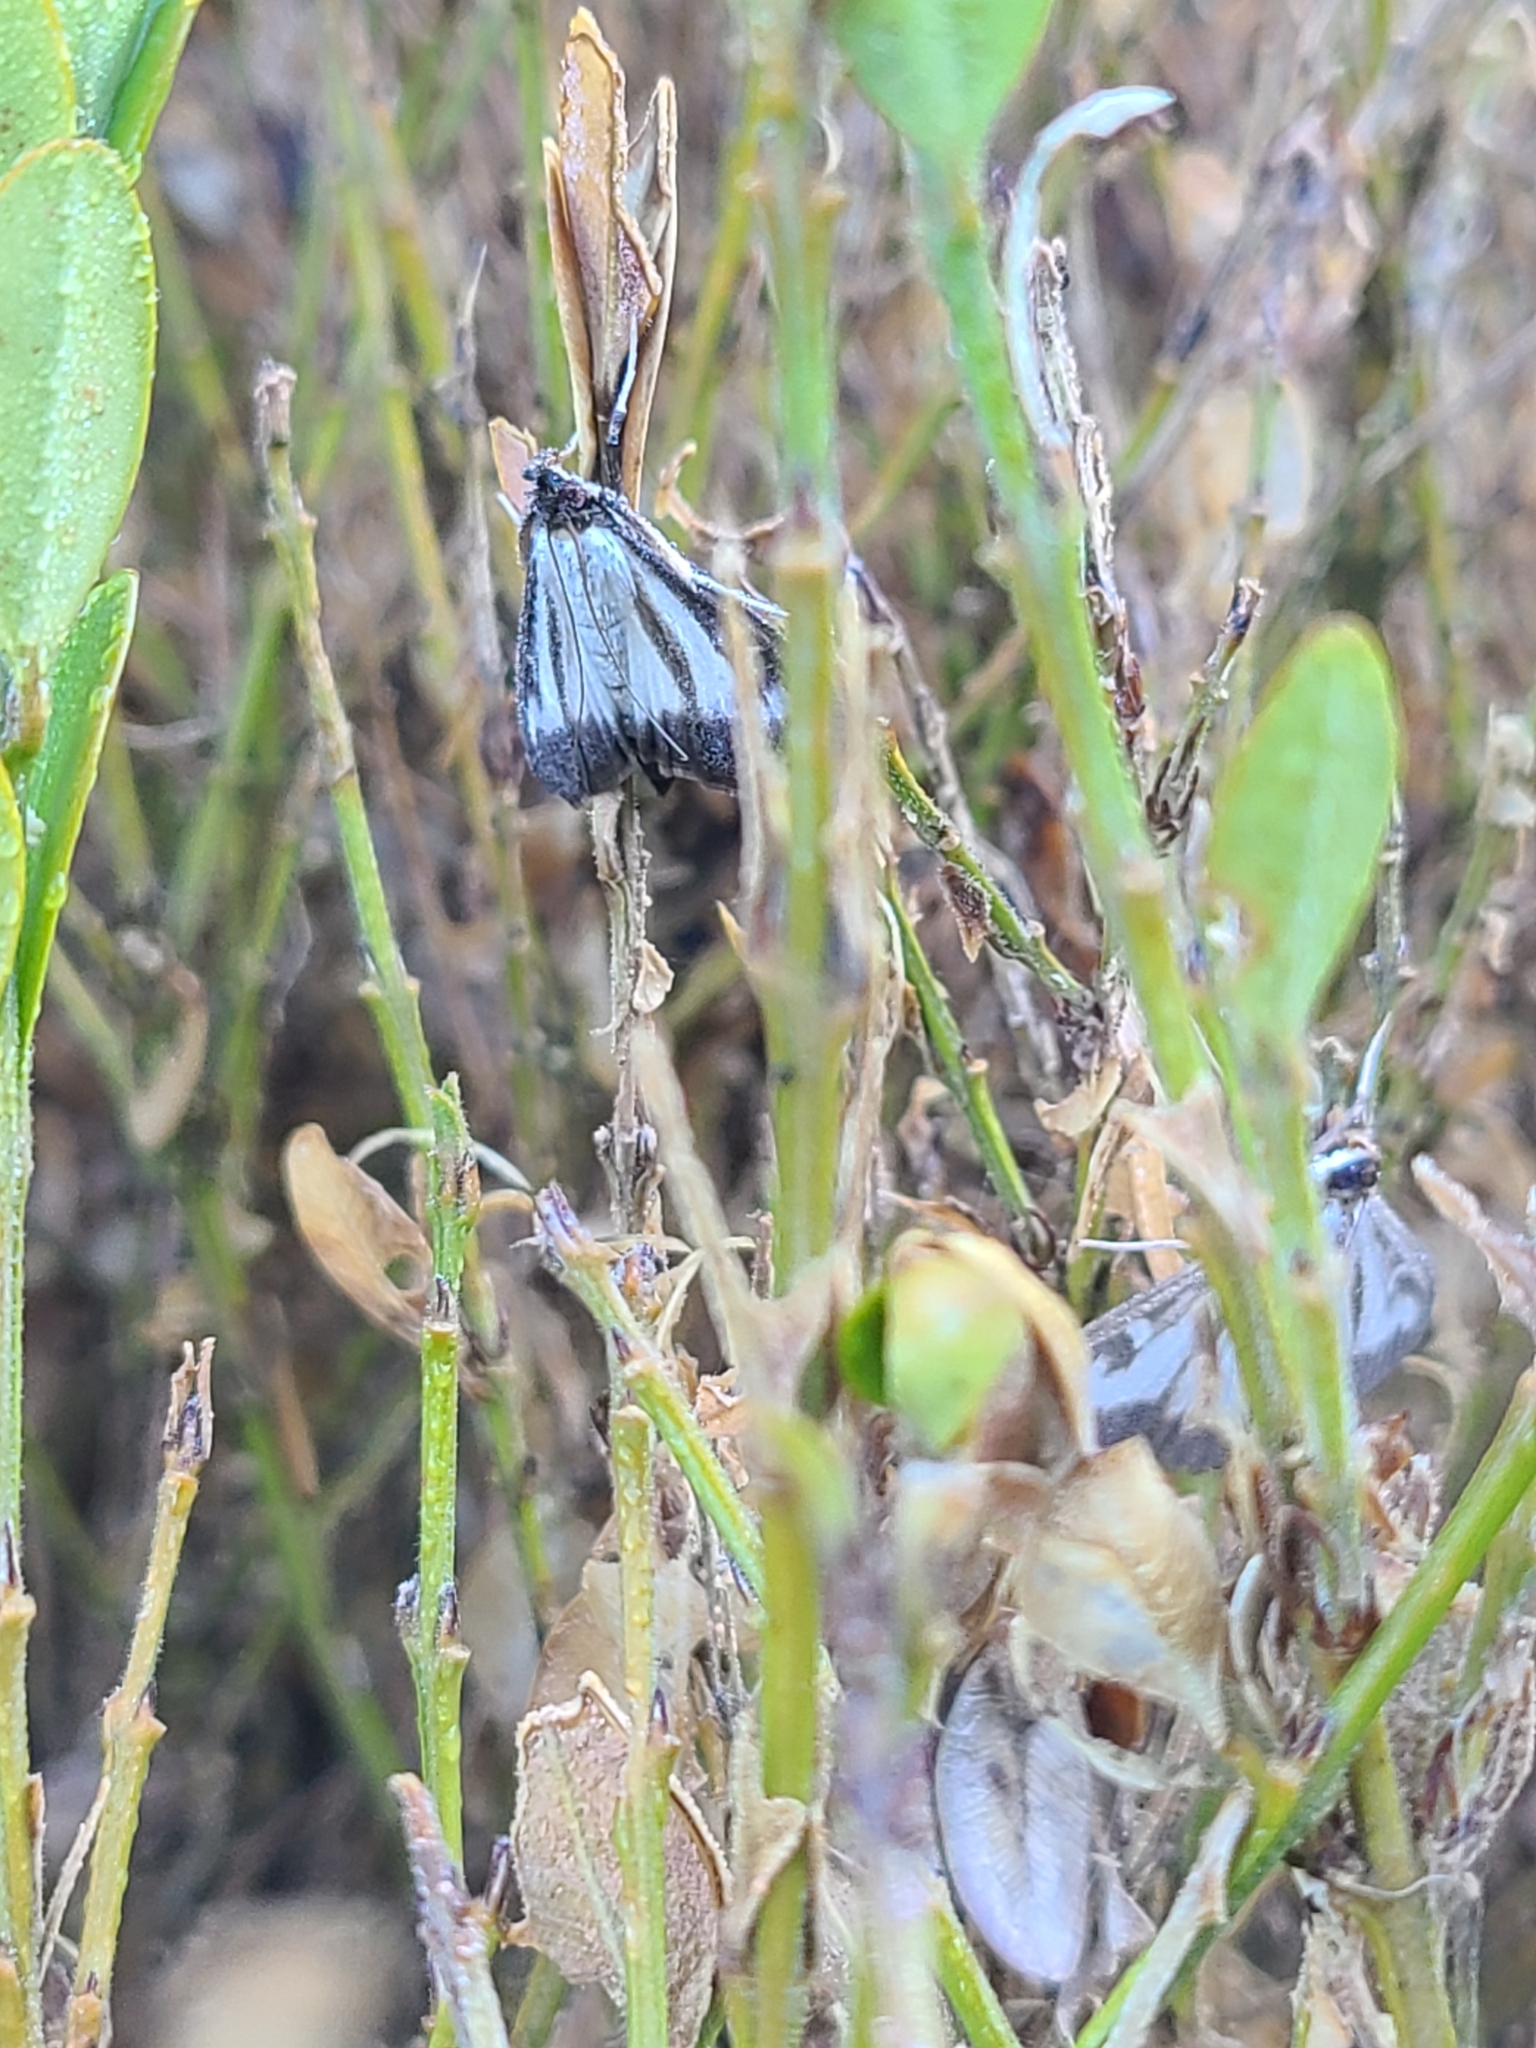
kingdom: Animalia
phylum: Arthropoda
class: Insecta
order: Lepidoptera
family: Crambidae
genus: Cydalima
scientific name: Cydalima perspectalis
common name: Box tree moth
